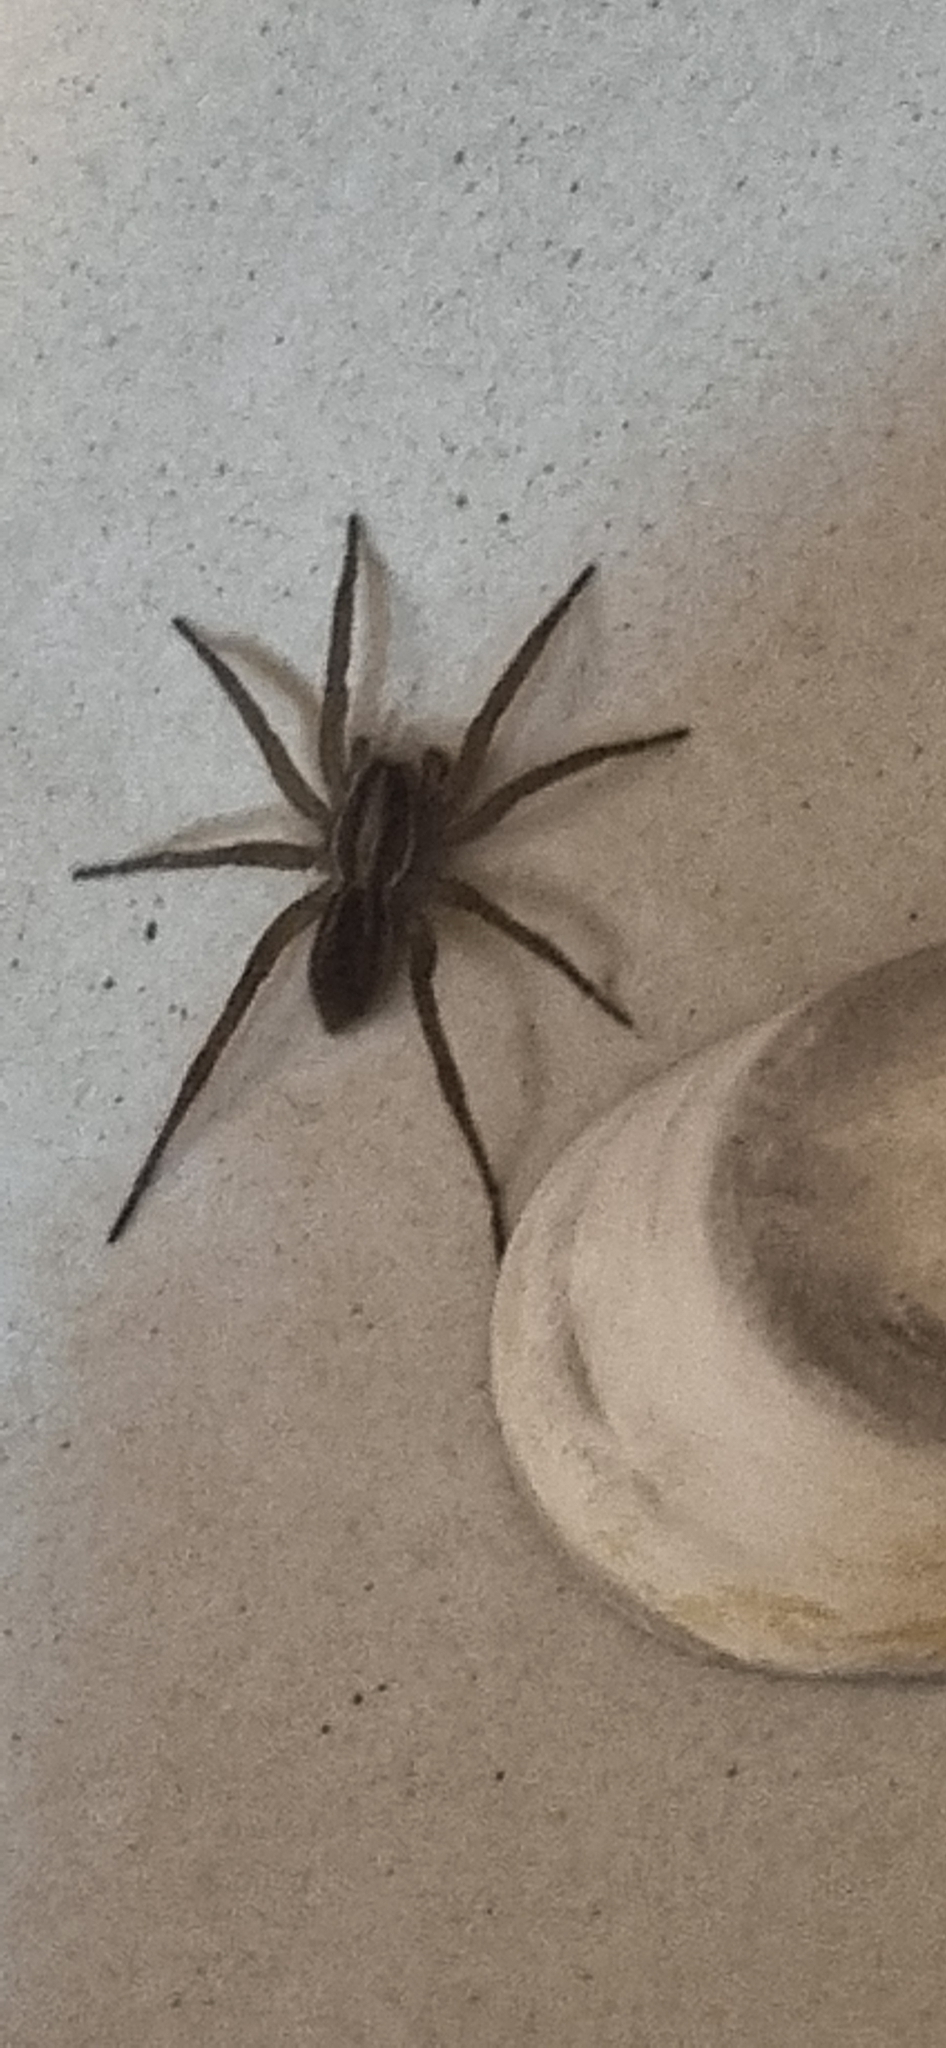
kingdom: Animalia
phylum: Arthropoda
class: Arachnida
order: Araneae
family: Lycosidae
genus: Alopecosa
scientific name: Alopecosa moesta
